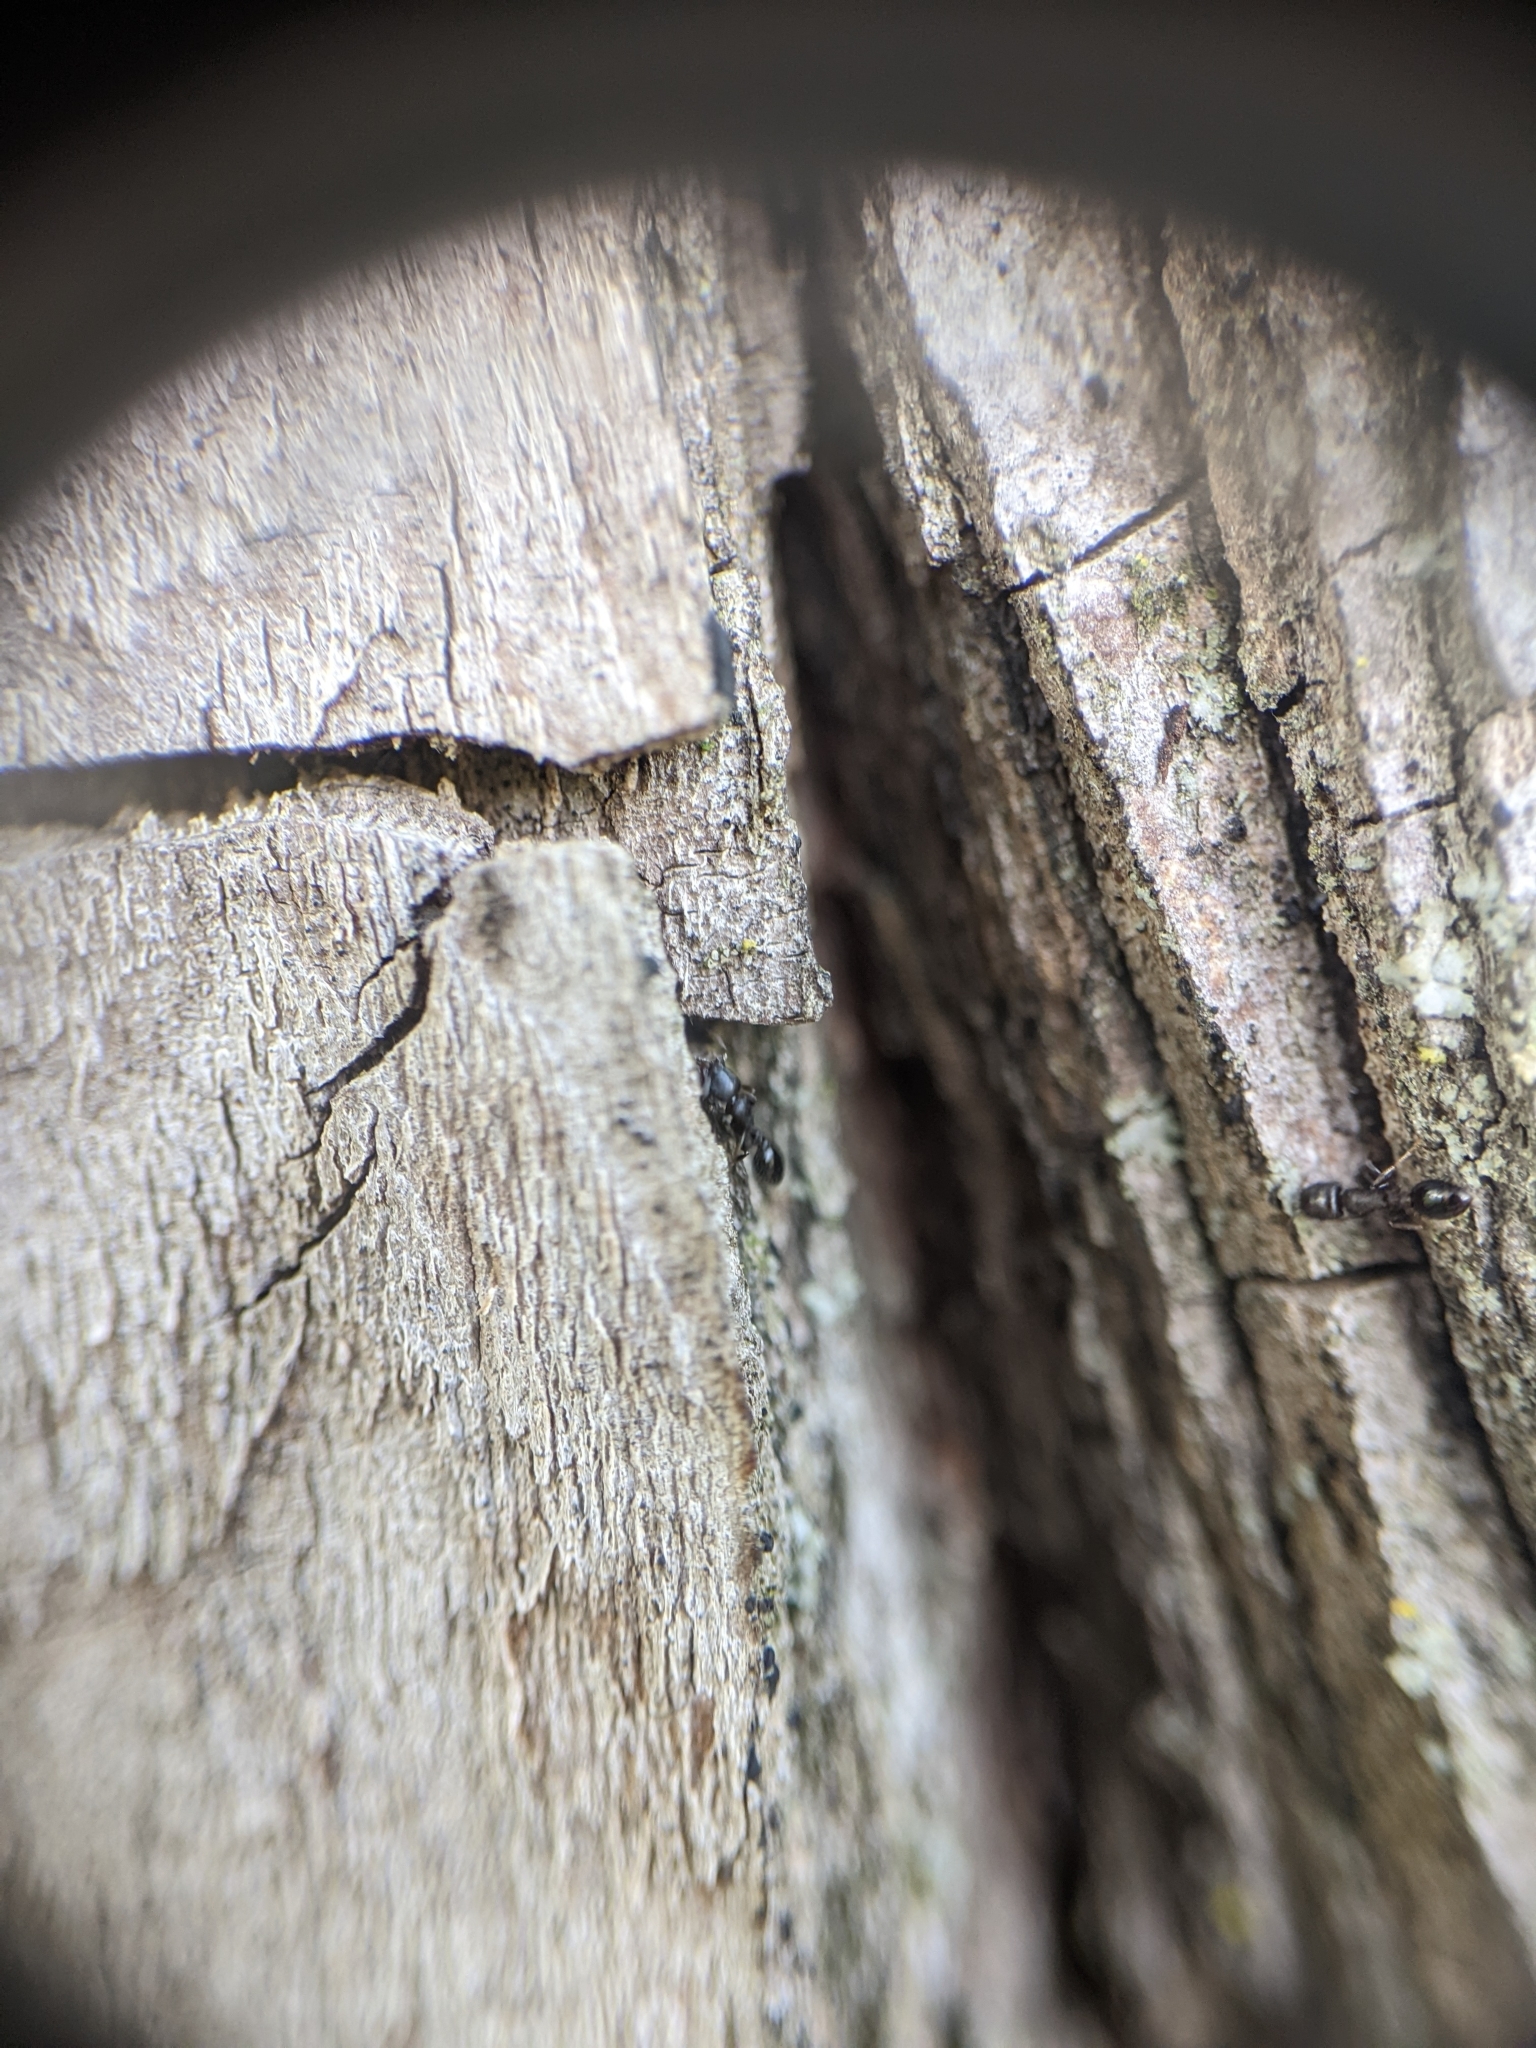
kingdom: Animalia
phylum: Arthropoda
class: Insecta
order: Hymenoptera
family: Formicidae
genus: Leptothorax
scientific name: Leptothorax schaumii
